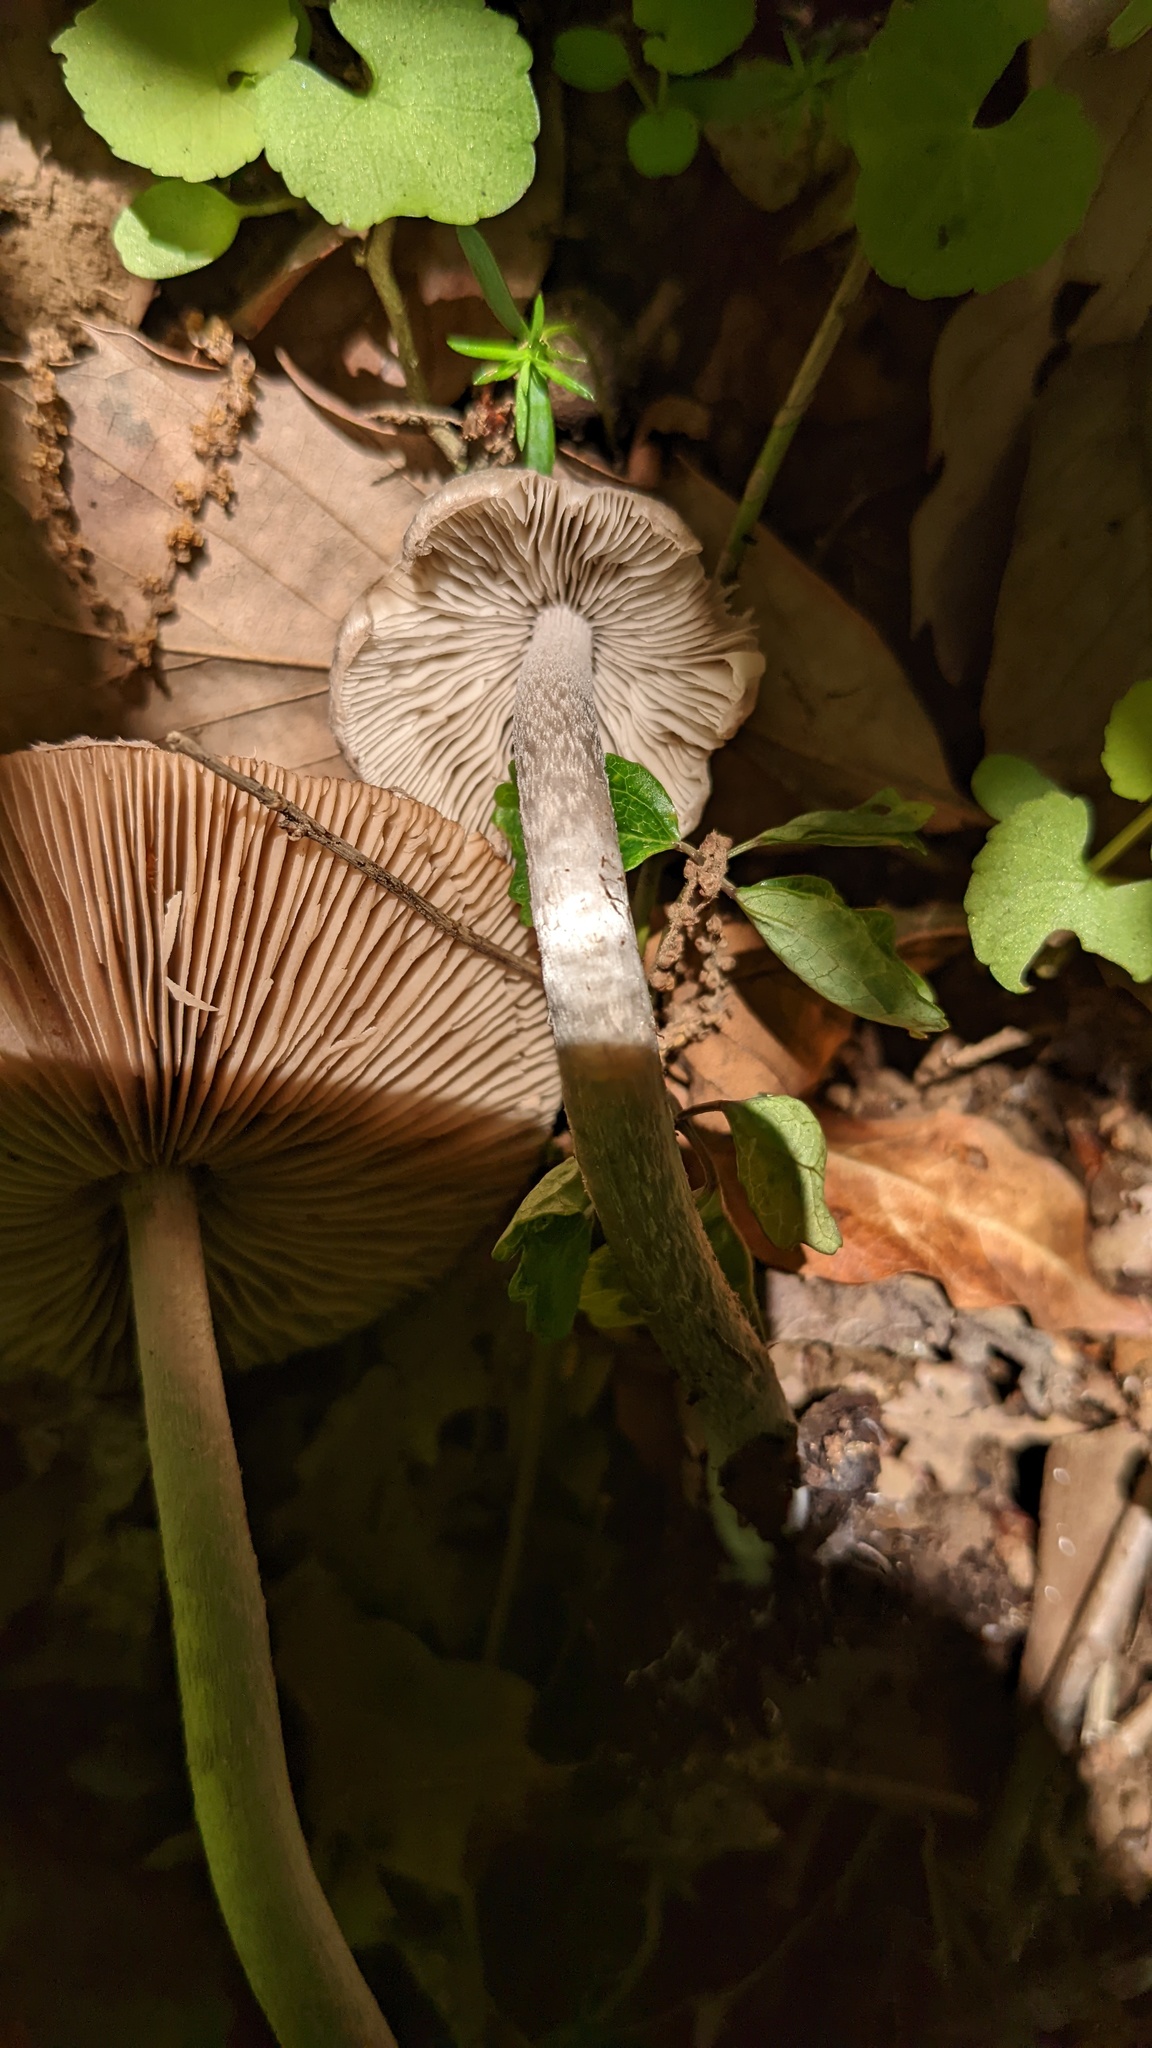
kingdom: Fungi
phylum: Basidiomycota
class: Agaricomycetes
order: Agaricales
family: Psathyrellaceae
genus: Coprinopsis
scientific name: Coprinopsis cineraria
